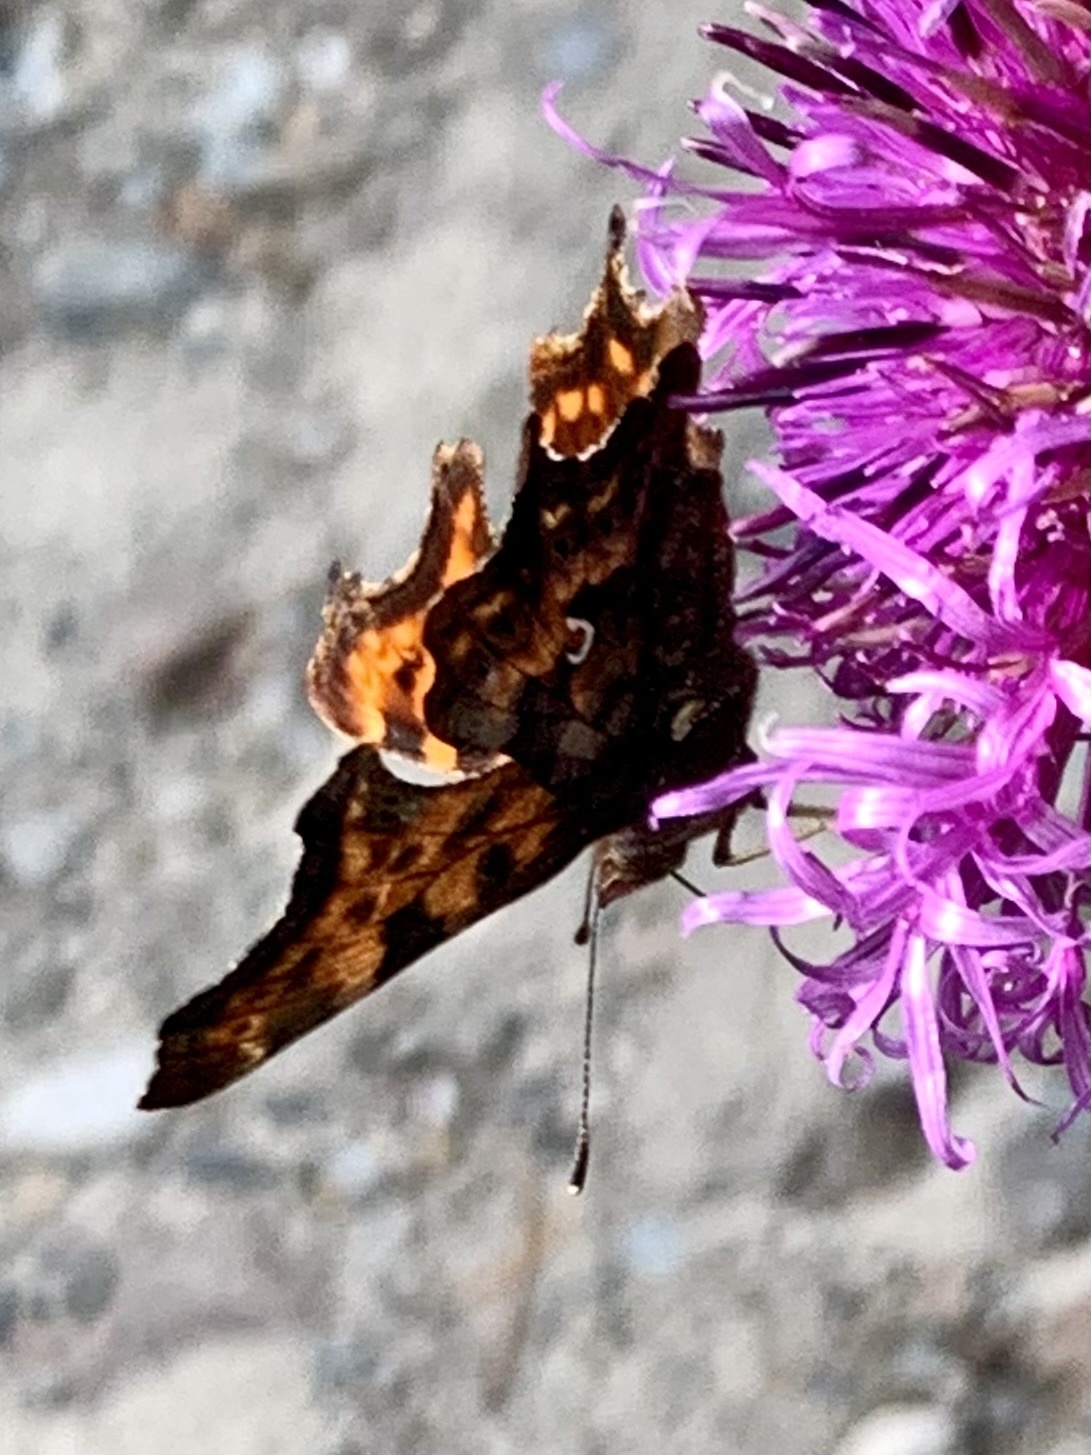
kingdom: Animalia
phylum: Arthropoda
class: Insecta
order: Lepidoptera
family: Nymphalidae
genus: Polygonia
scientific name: Polygonia c-album
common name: Comma
